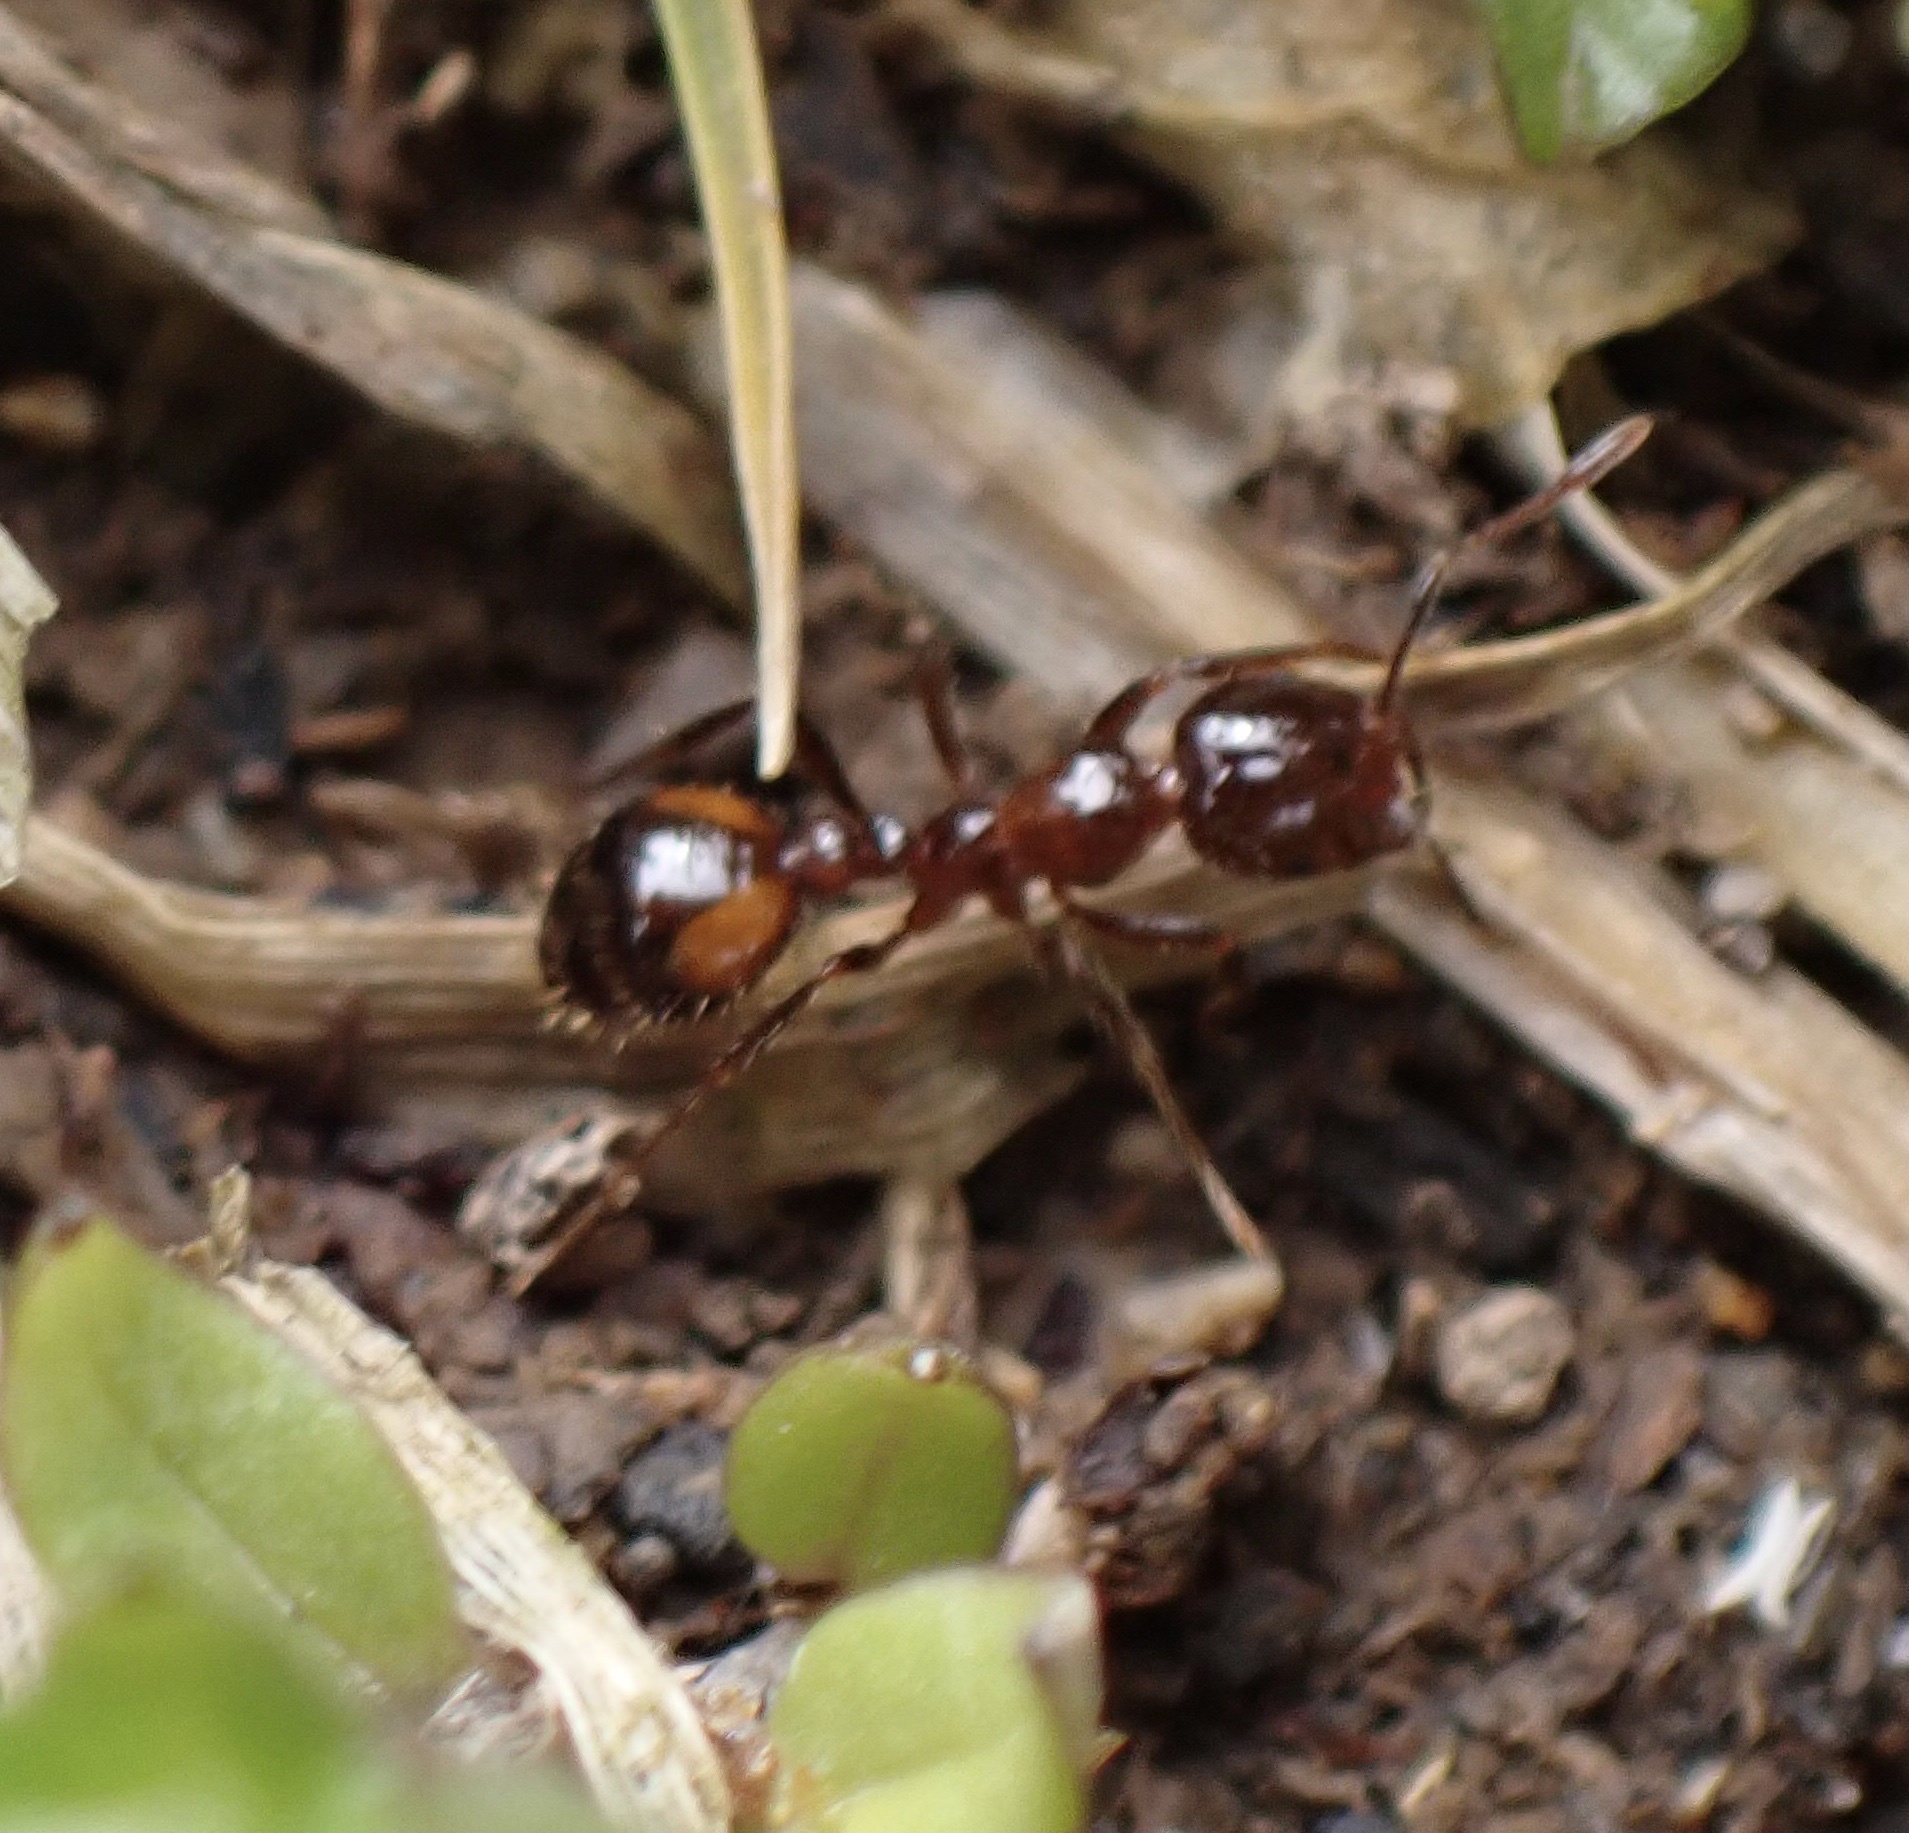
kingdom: Animalia
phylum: Arthropoda
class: Insecta
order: Hymenoptera
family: Formicidae
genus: Solenopsis
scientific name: Solenopsis
